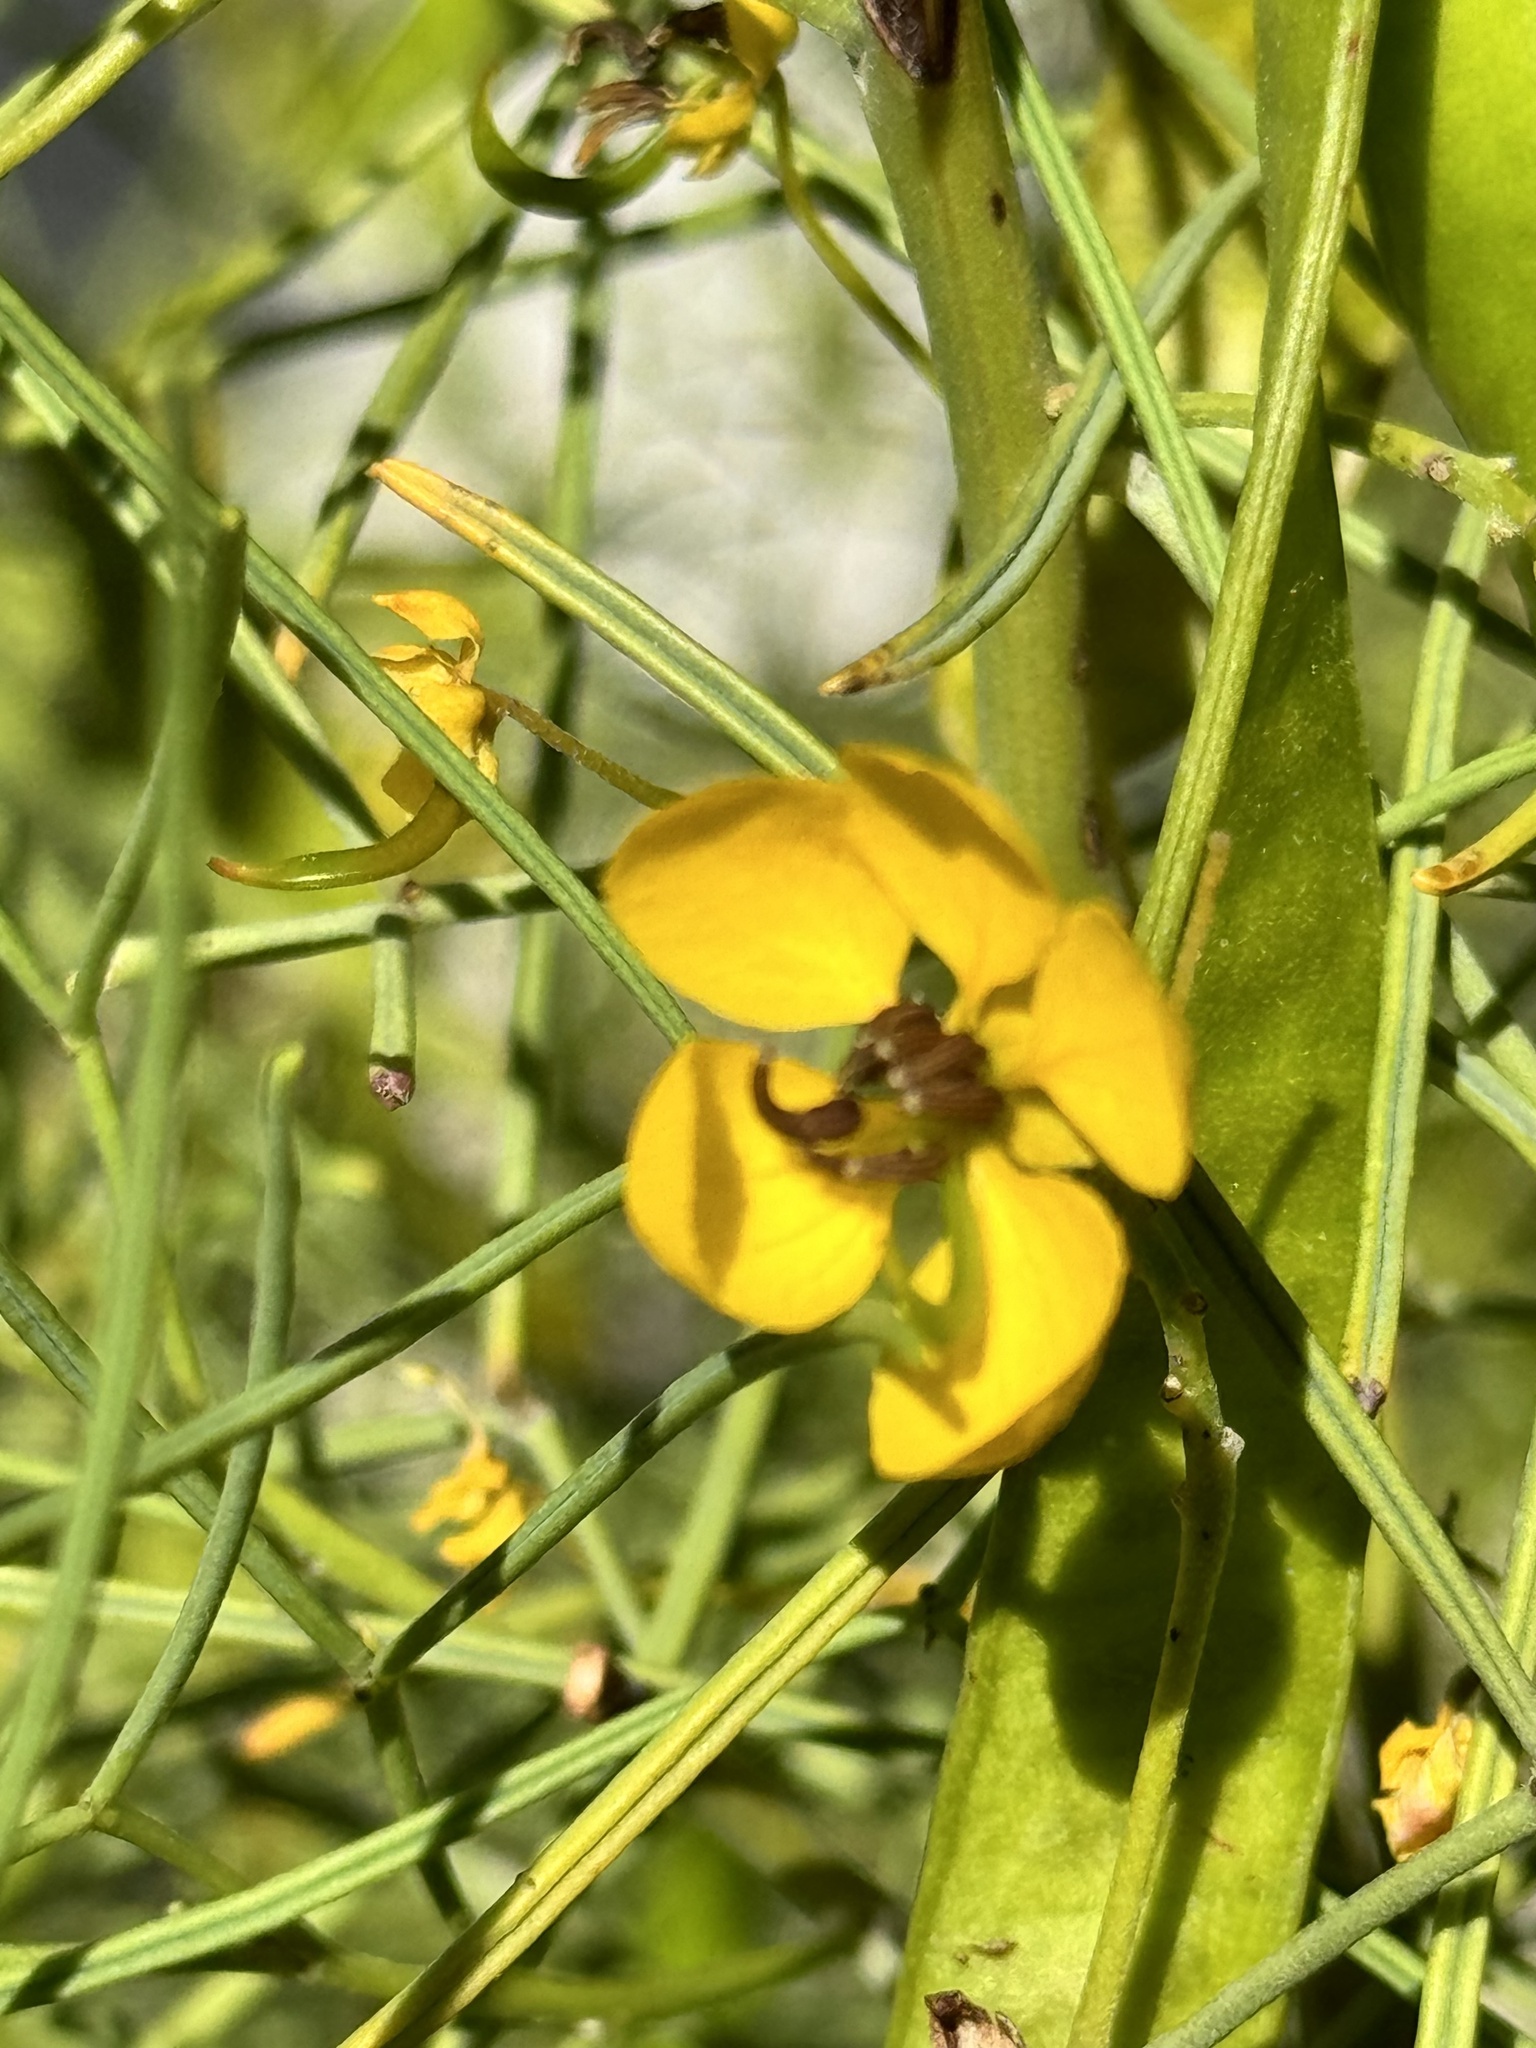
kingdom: Plantae
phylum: Tracheophyta
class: Magnoliopsida
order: Fabales
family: Fabaceae
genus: Senna
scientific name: Senna artemisioides
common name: Burnt-leaved acacia
